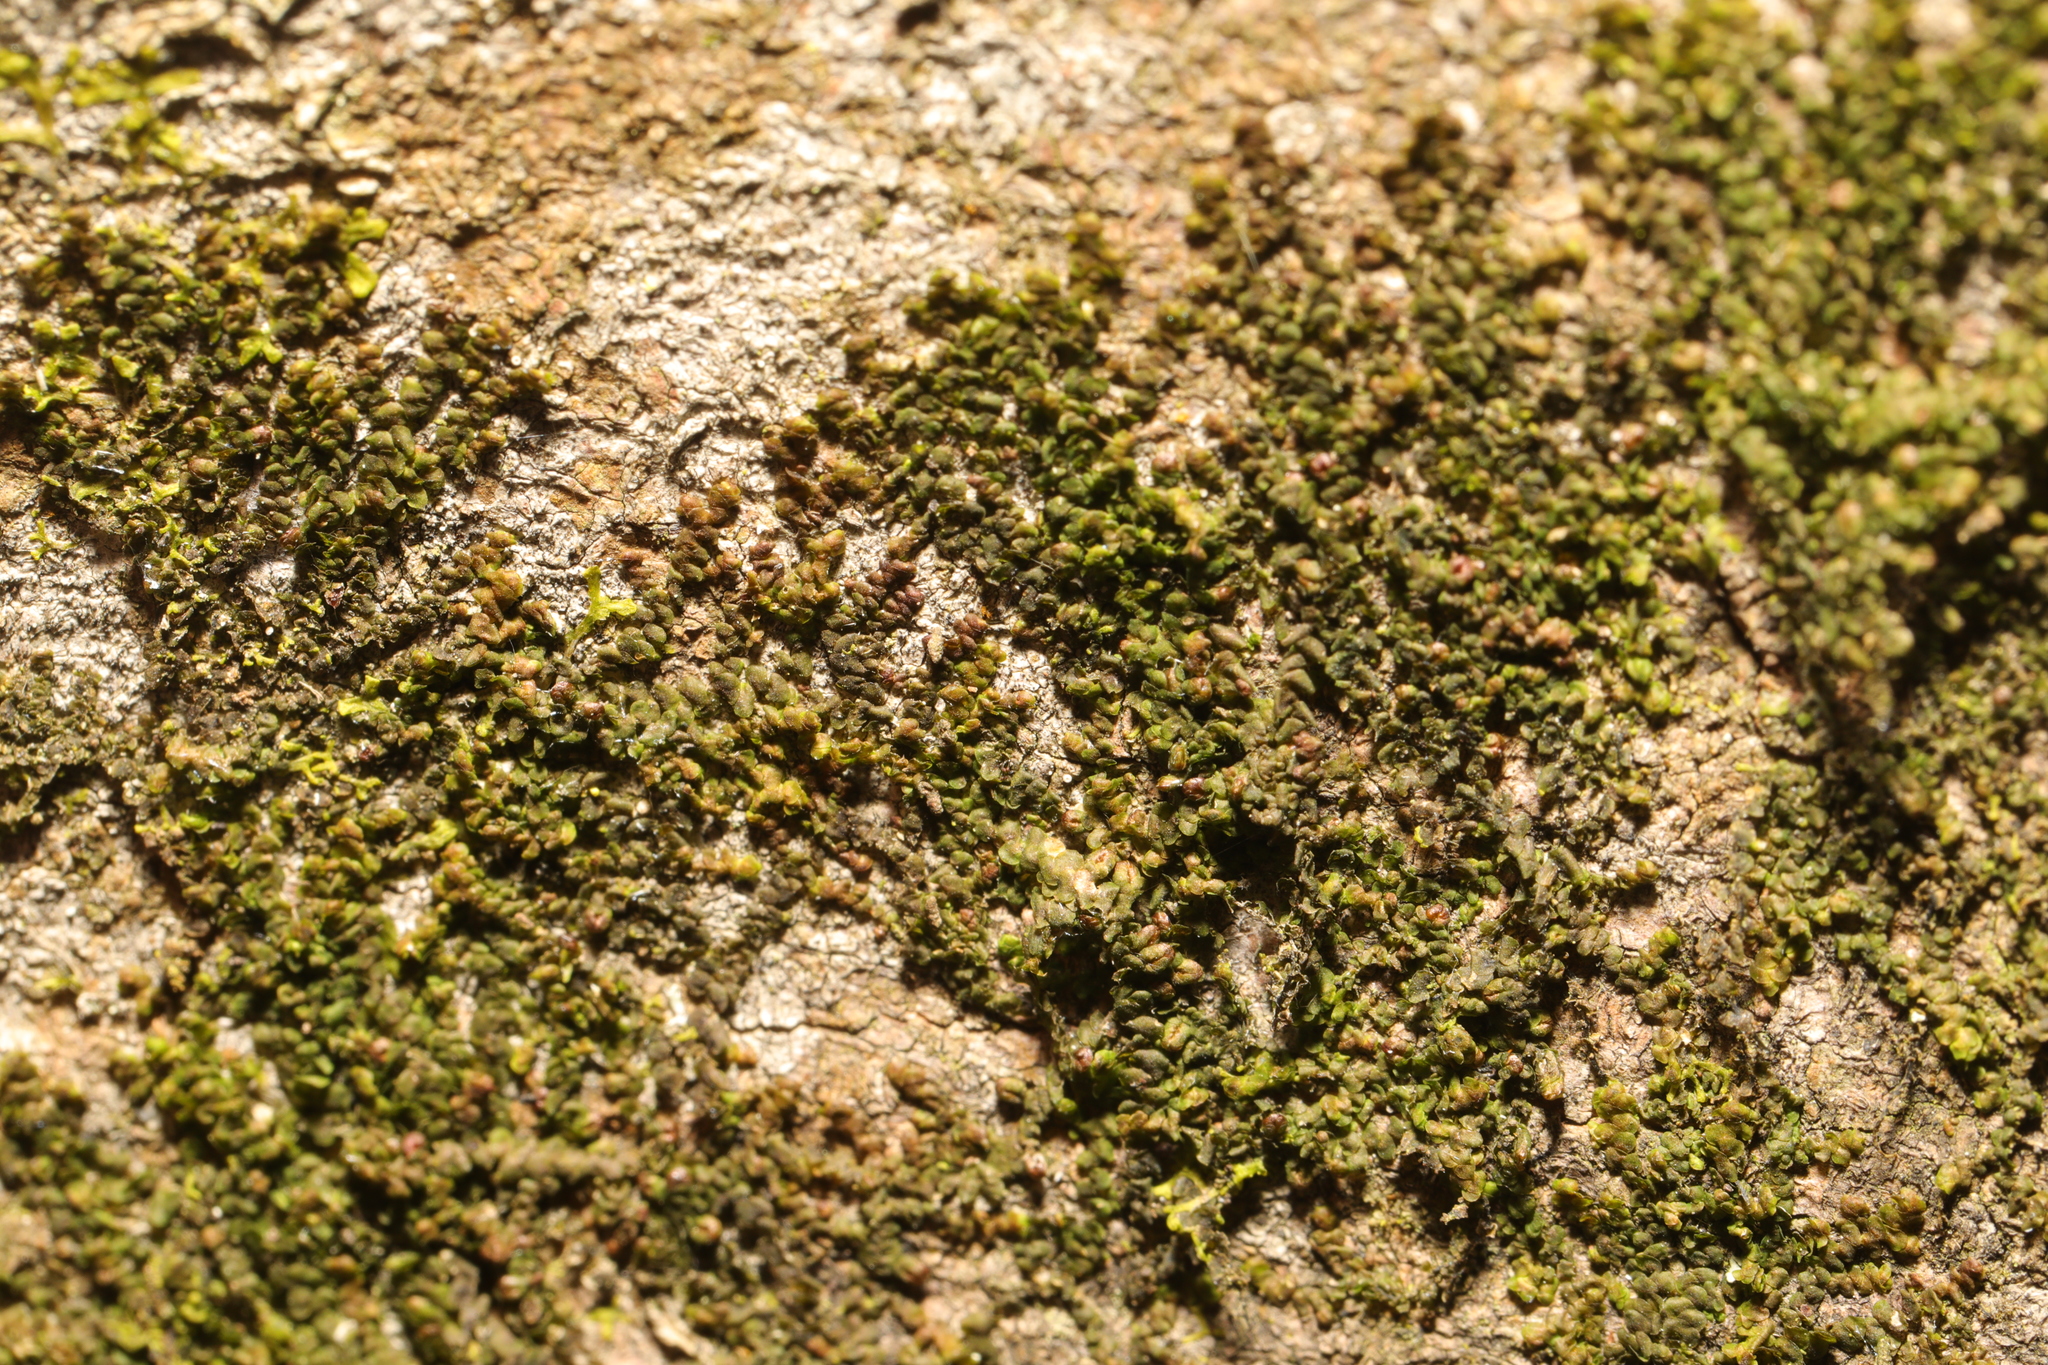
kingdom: Plantae
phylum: Marchantiophyta
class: Jungermanniopsida
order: Porellales
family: Frullaniaceae
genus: Frullania
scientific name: Frullania dilatata
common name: Dilated scalewort
